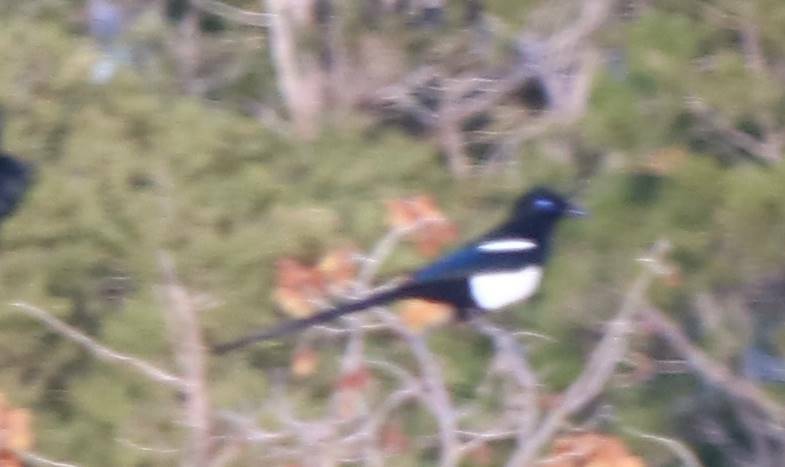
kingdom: Animalia
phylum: Chordata
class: Aves
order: Passeriformes
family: Corvidae
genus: Pica
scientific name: Pica mauritanica
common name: Maghreb magpie
